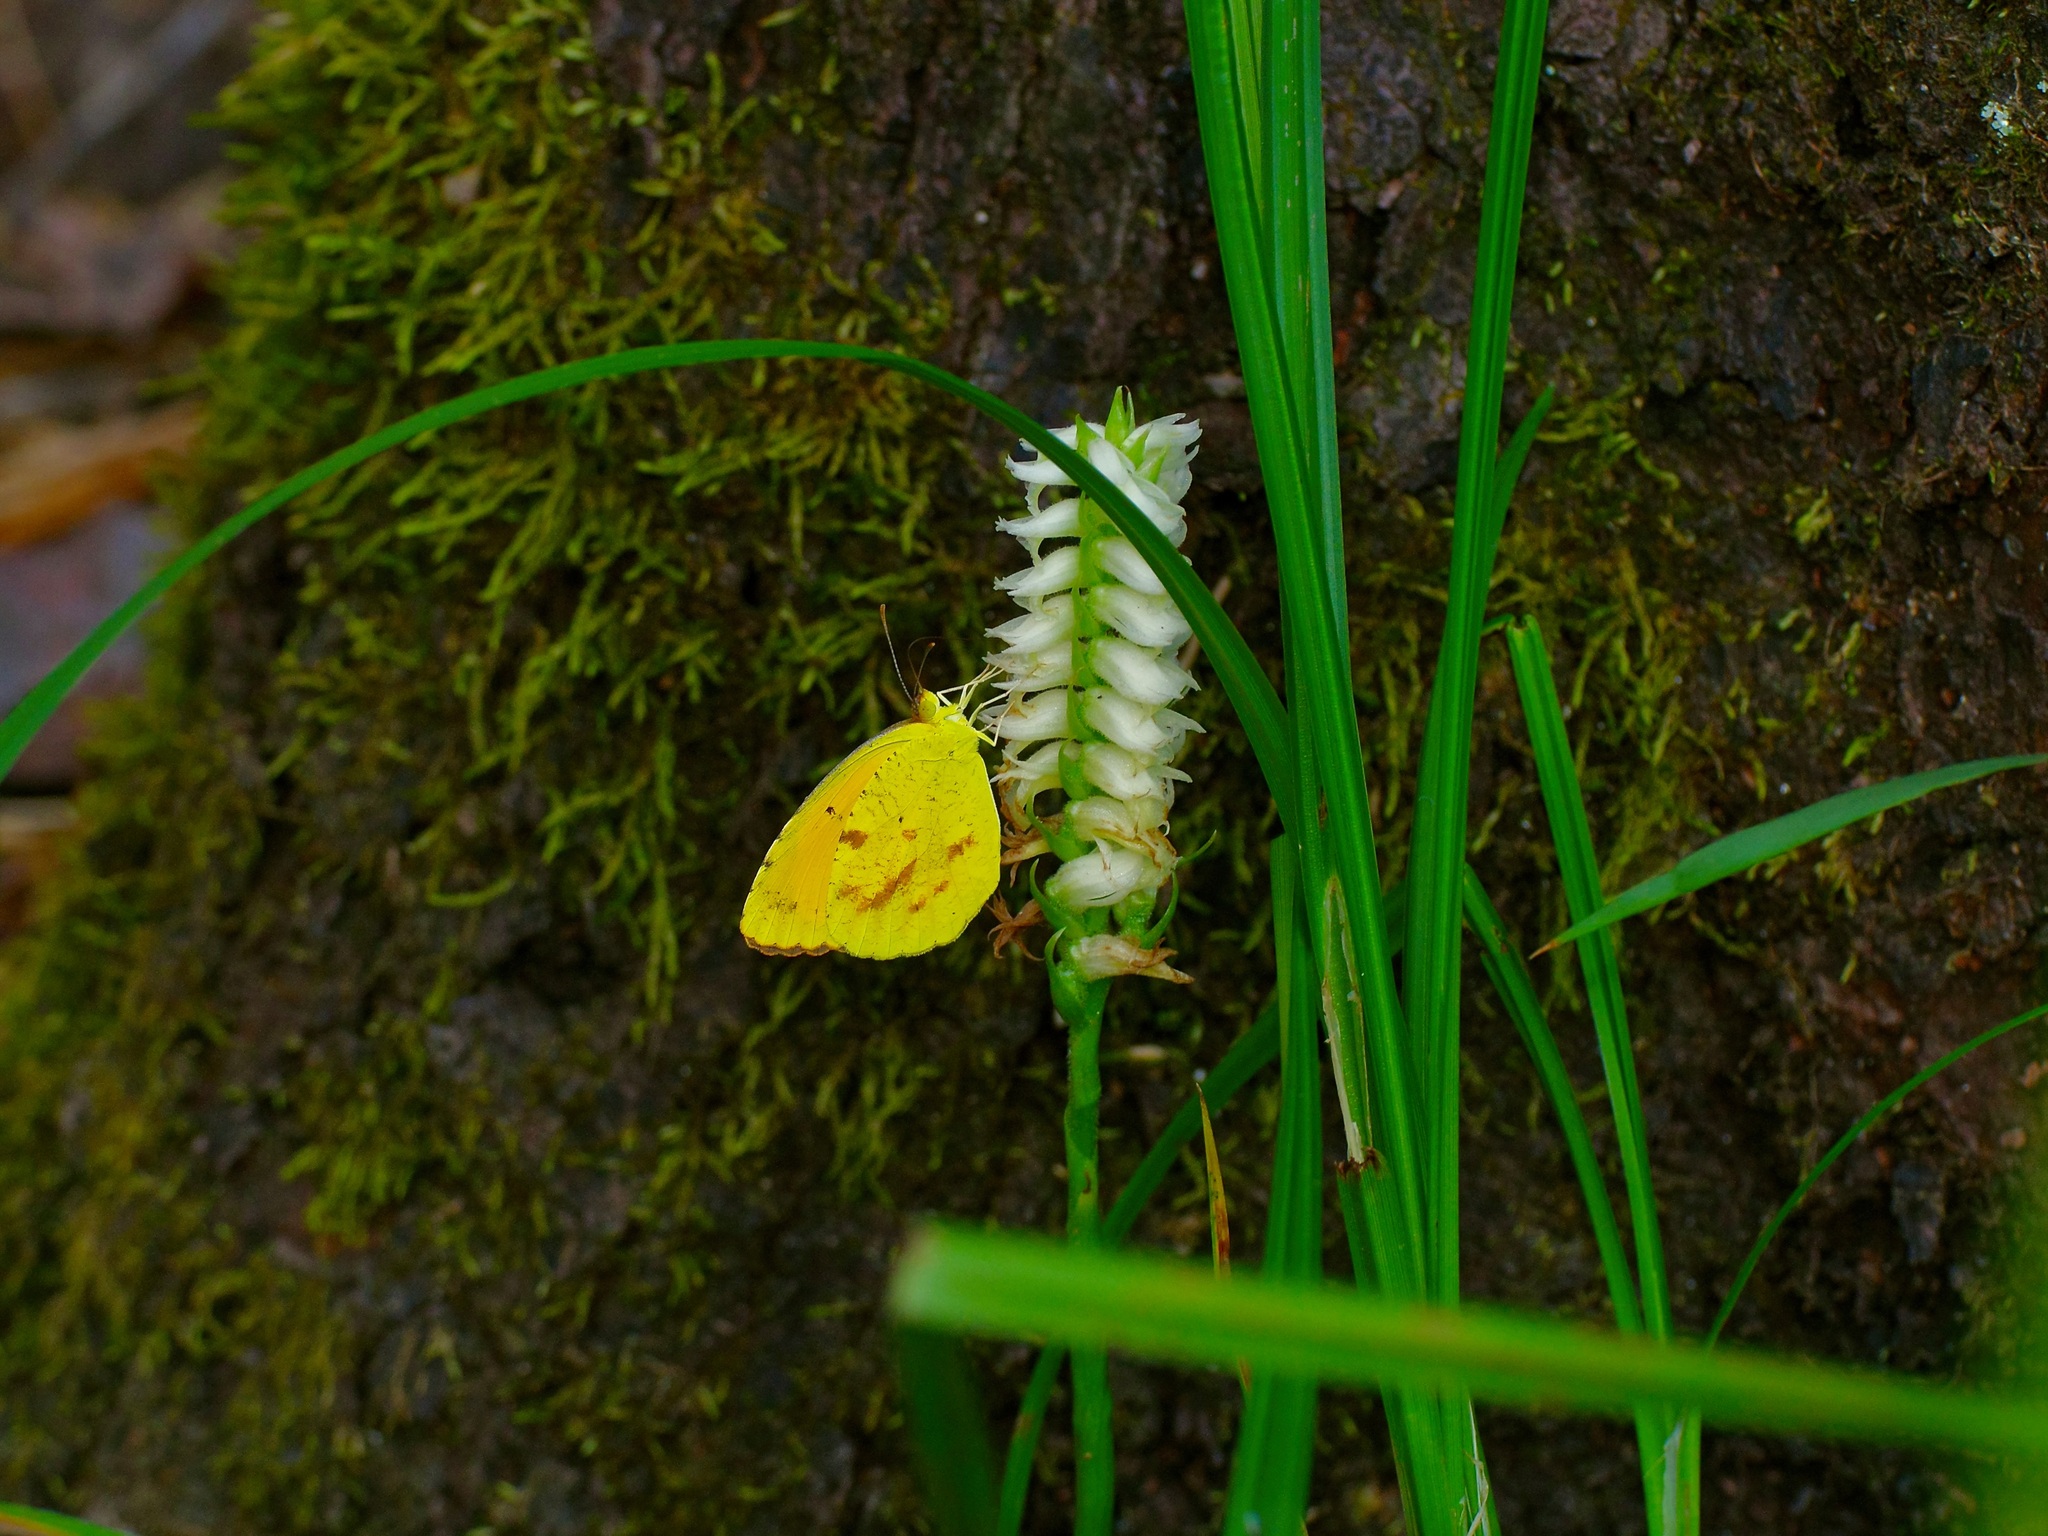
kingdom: Animalia
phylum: Arthropoda
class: Insecta
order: Lepidoptera
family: Pieridae
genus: Abaeis
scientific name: Abaeis nicippe
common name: Sleepy orange
